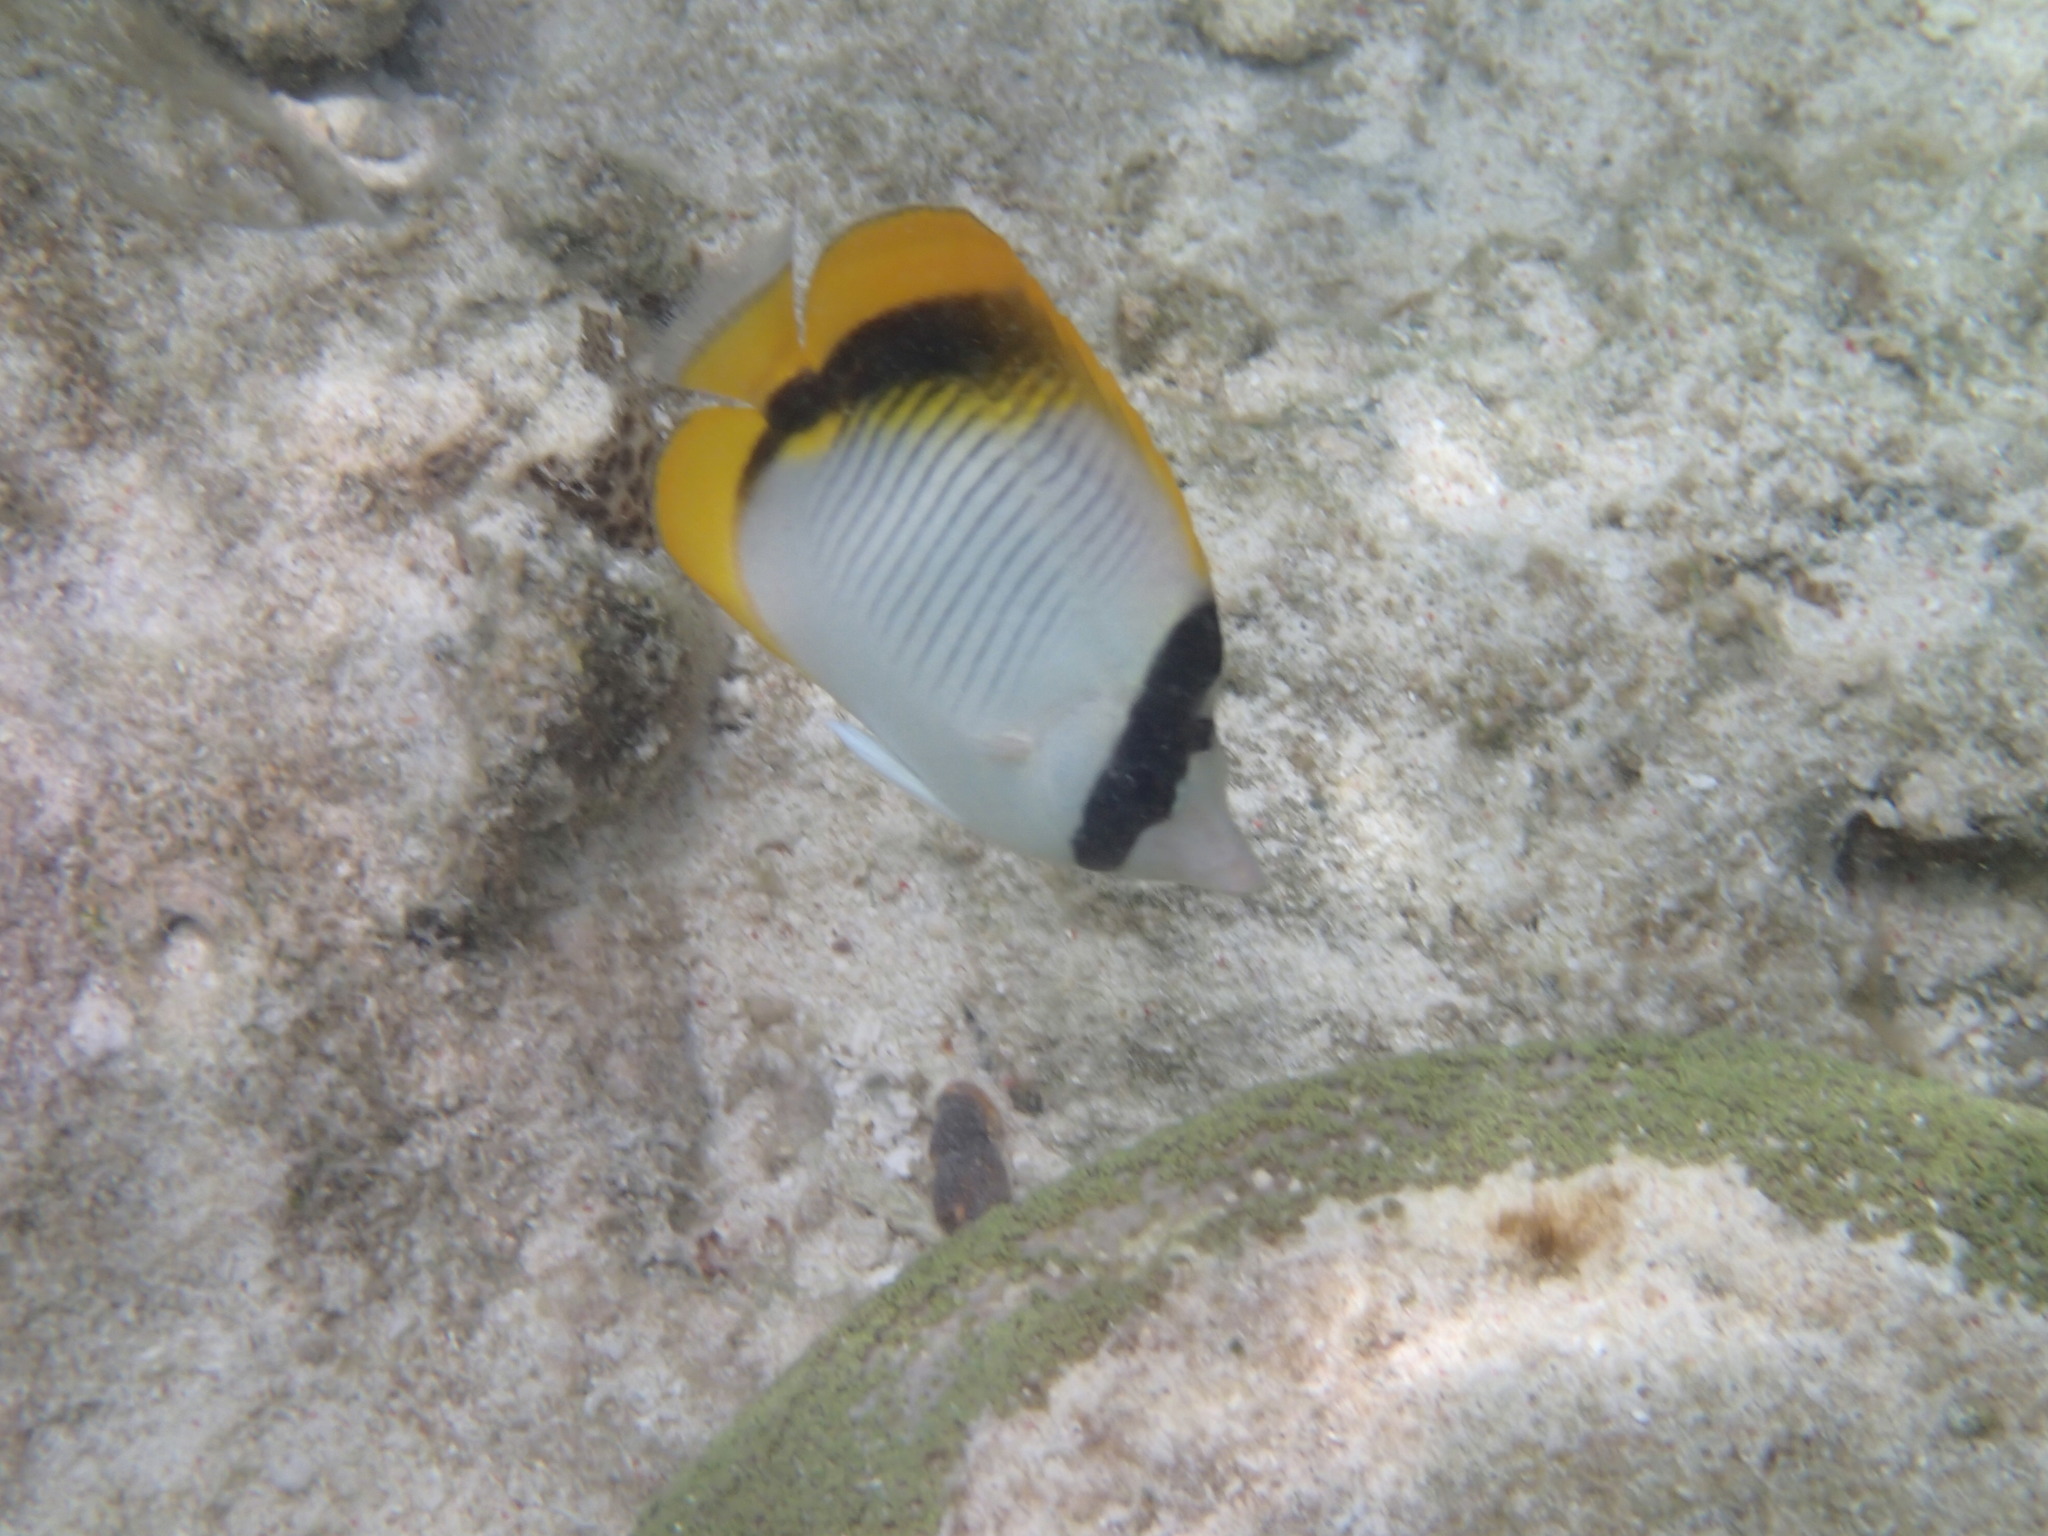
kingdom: Animalia
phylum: Chordata
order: Perciformes
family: Chaetodontidae
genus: Chaetodon
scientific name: Chaetodon lineolatus
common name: Lined butterflyfish
